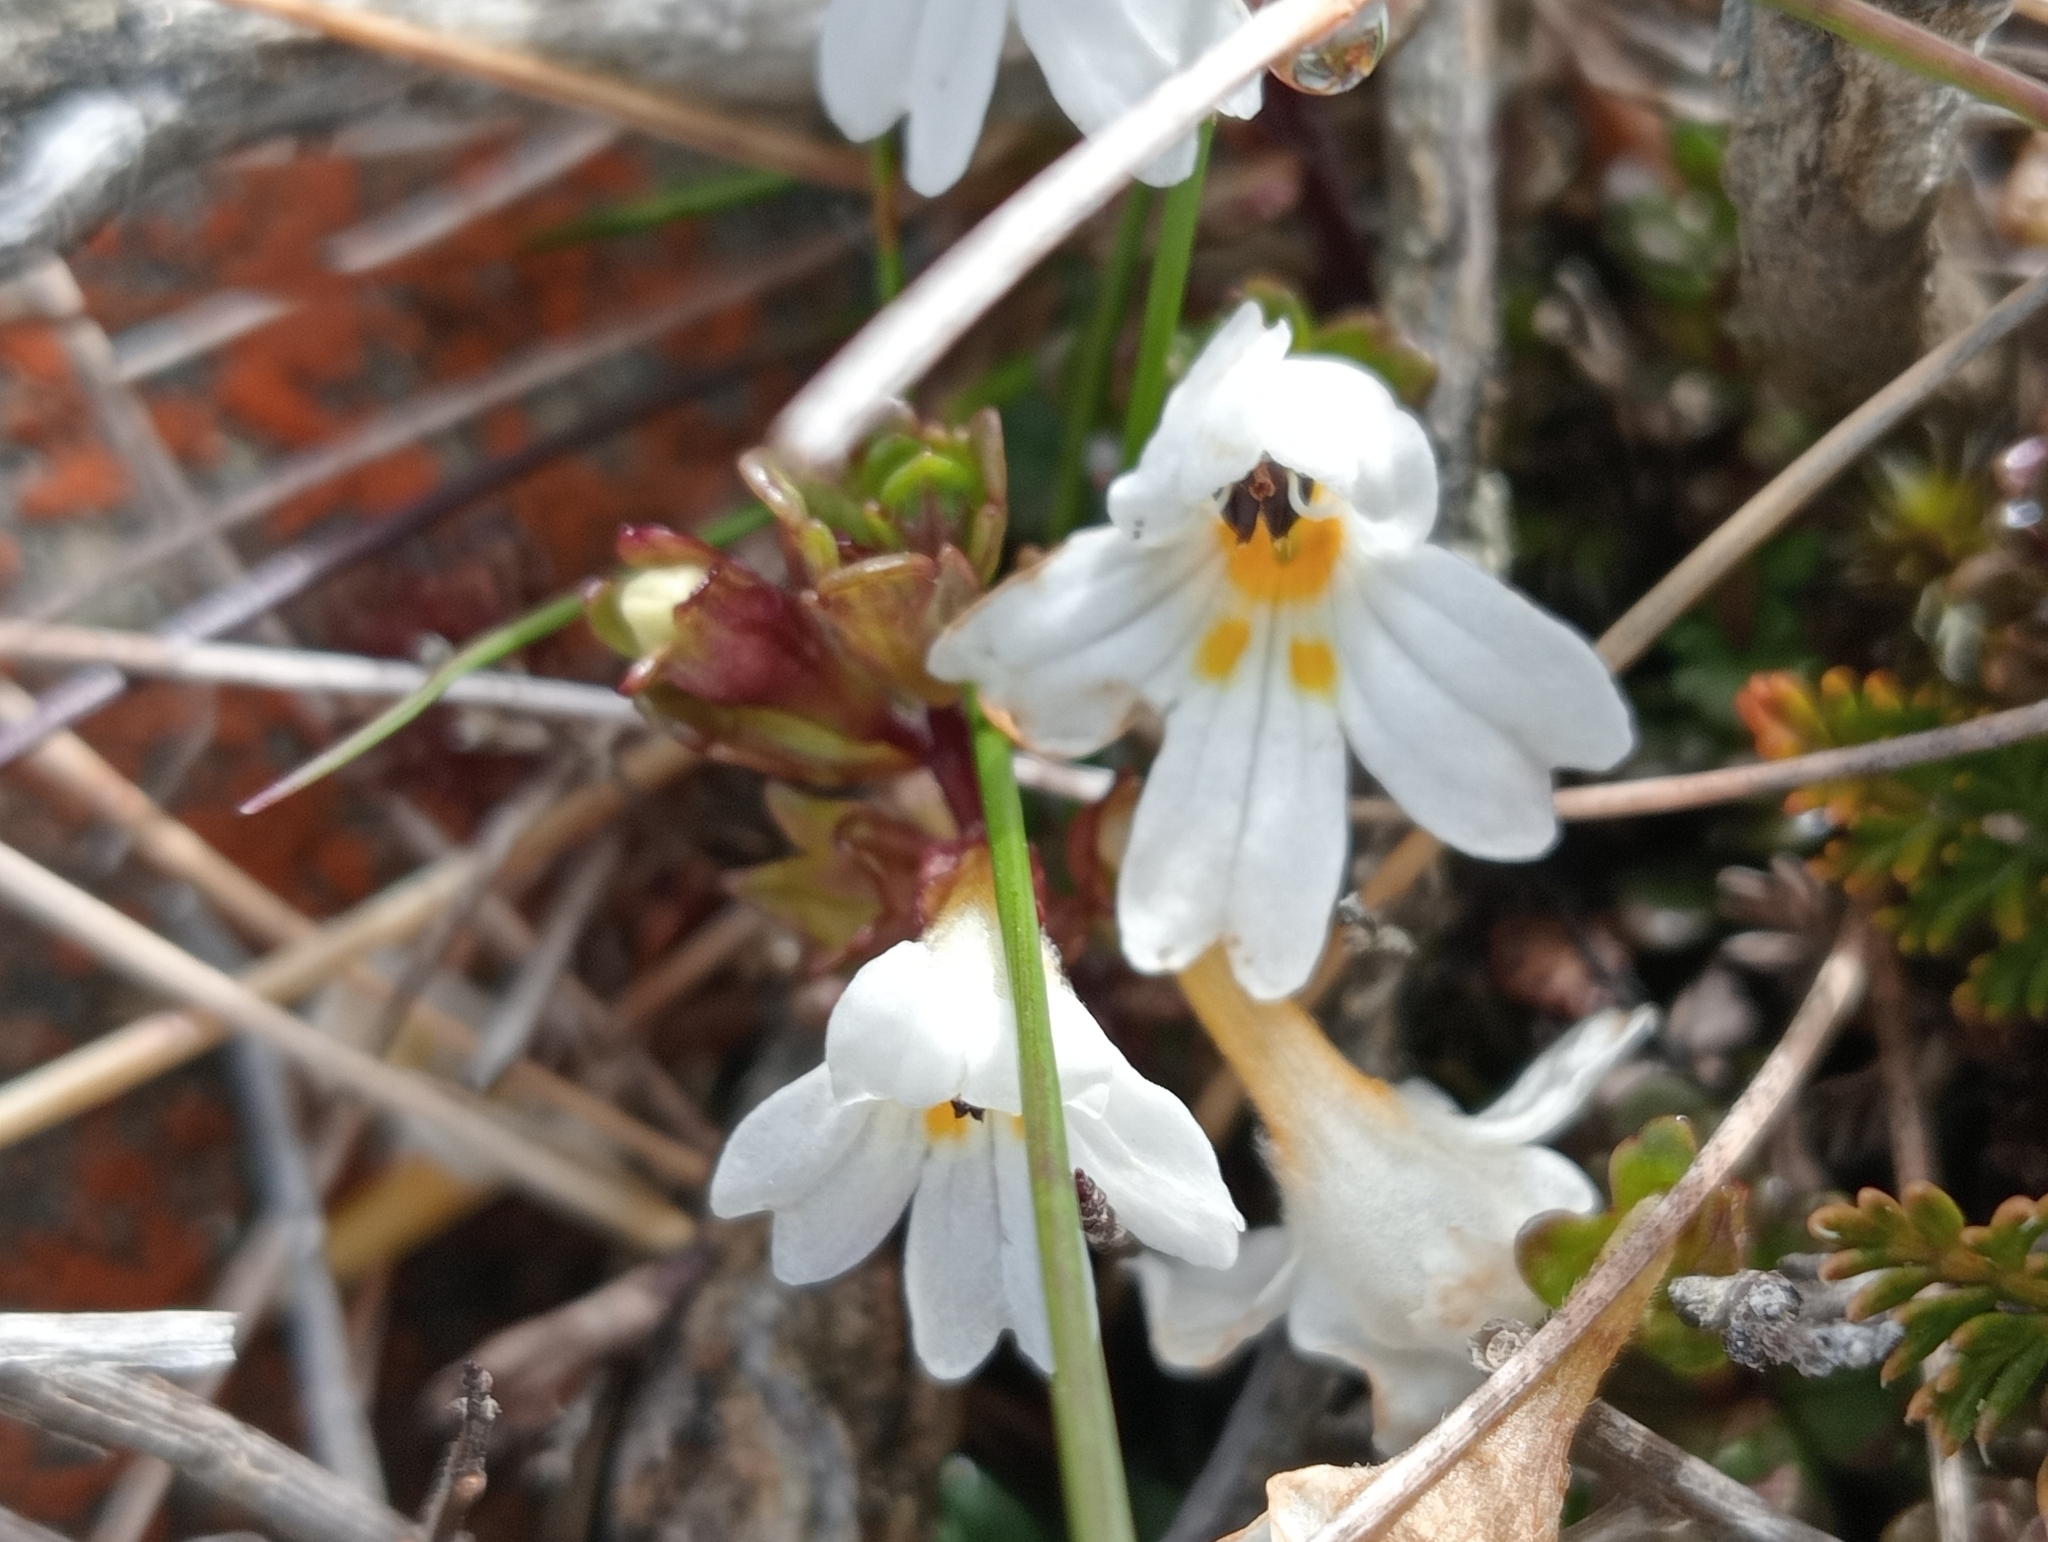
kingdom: Plantae
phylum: Tracheophyta
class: Magnoliopsida
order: Lamiales
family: Orobanchaceae
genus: Euphrasia
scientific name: Euphrasia laingii
